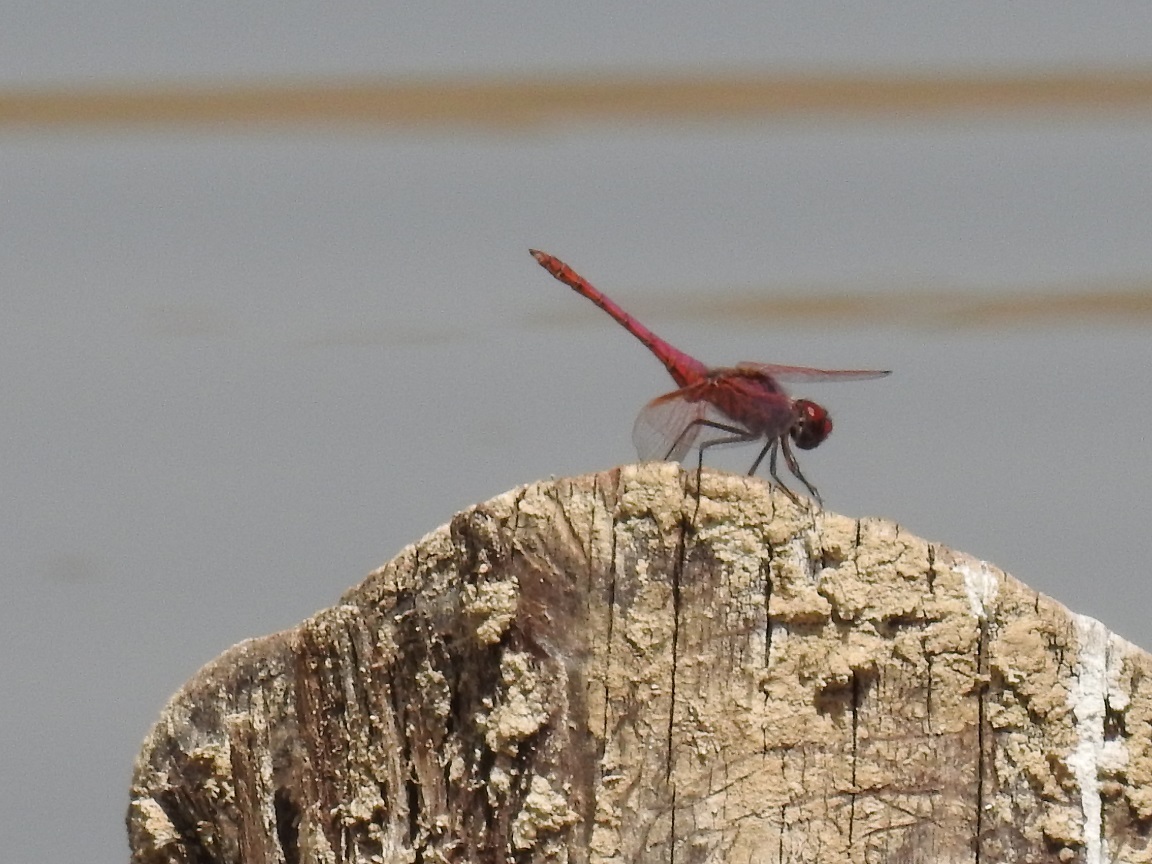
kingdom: Animalia
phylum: Arthropoda
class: Insecta
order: Odonata
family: Libellulidae
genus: Trithemis
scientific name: Trithemis annulata
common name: Violet dropwing
